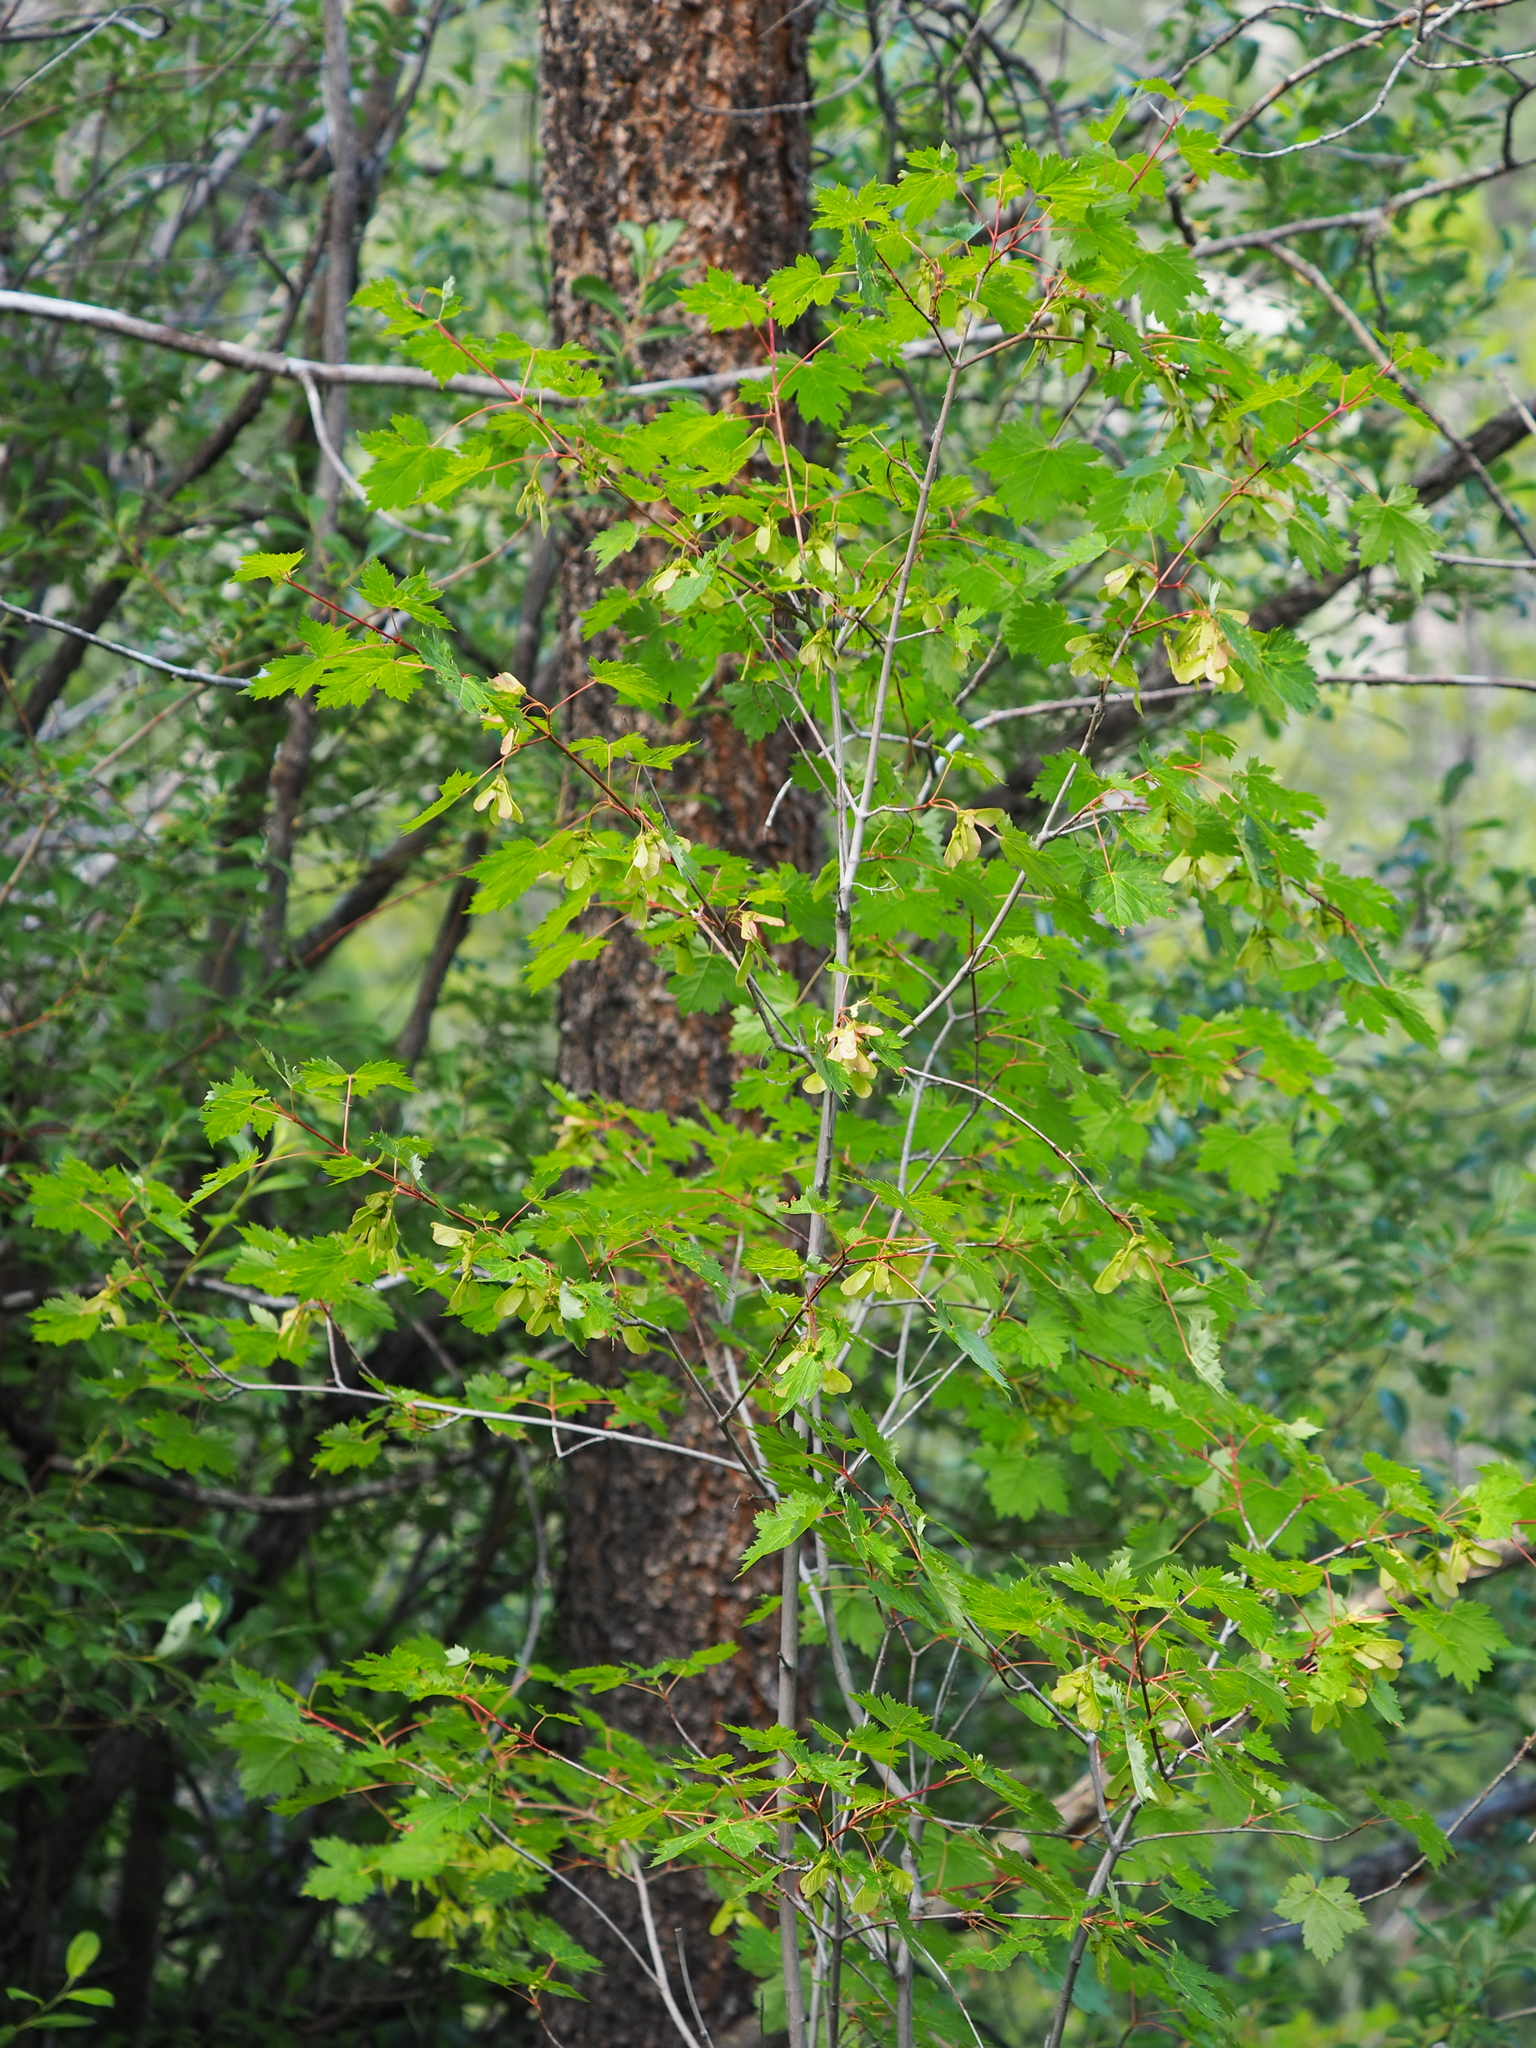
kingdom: Plantae
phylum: Tracheophyta
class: Magnoliopsida
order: Sapindales
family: Sapindaceae
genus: Acer
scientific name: Acer glabrum
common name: Rocky mountain maple
